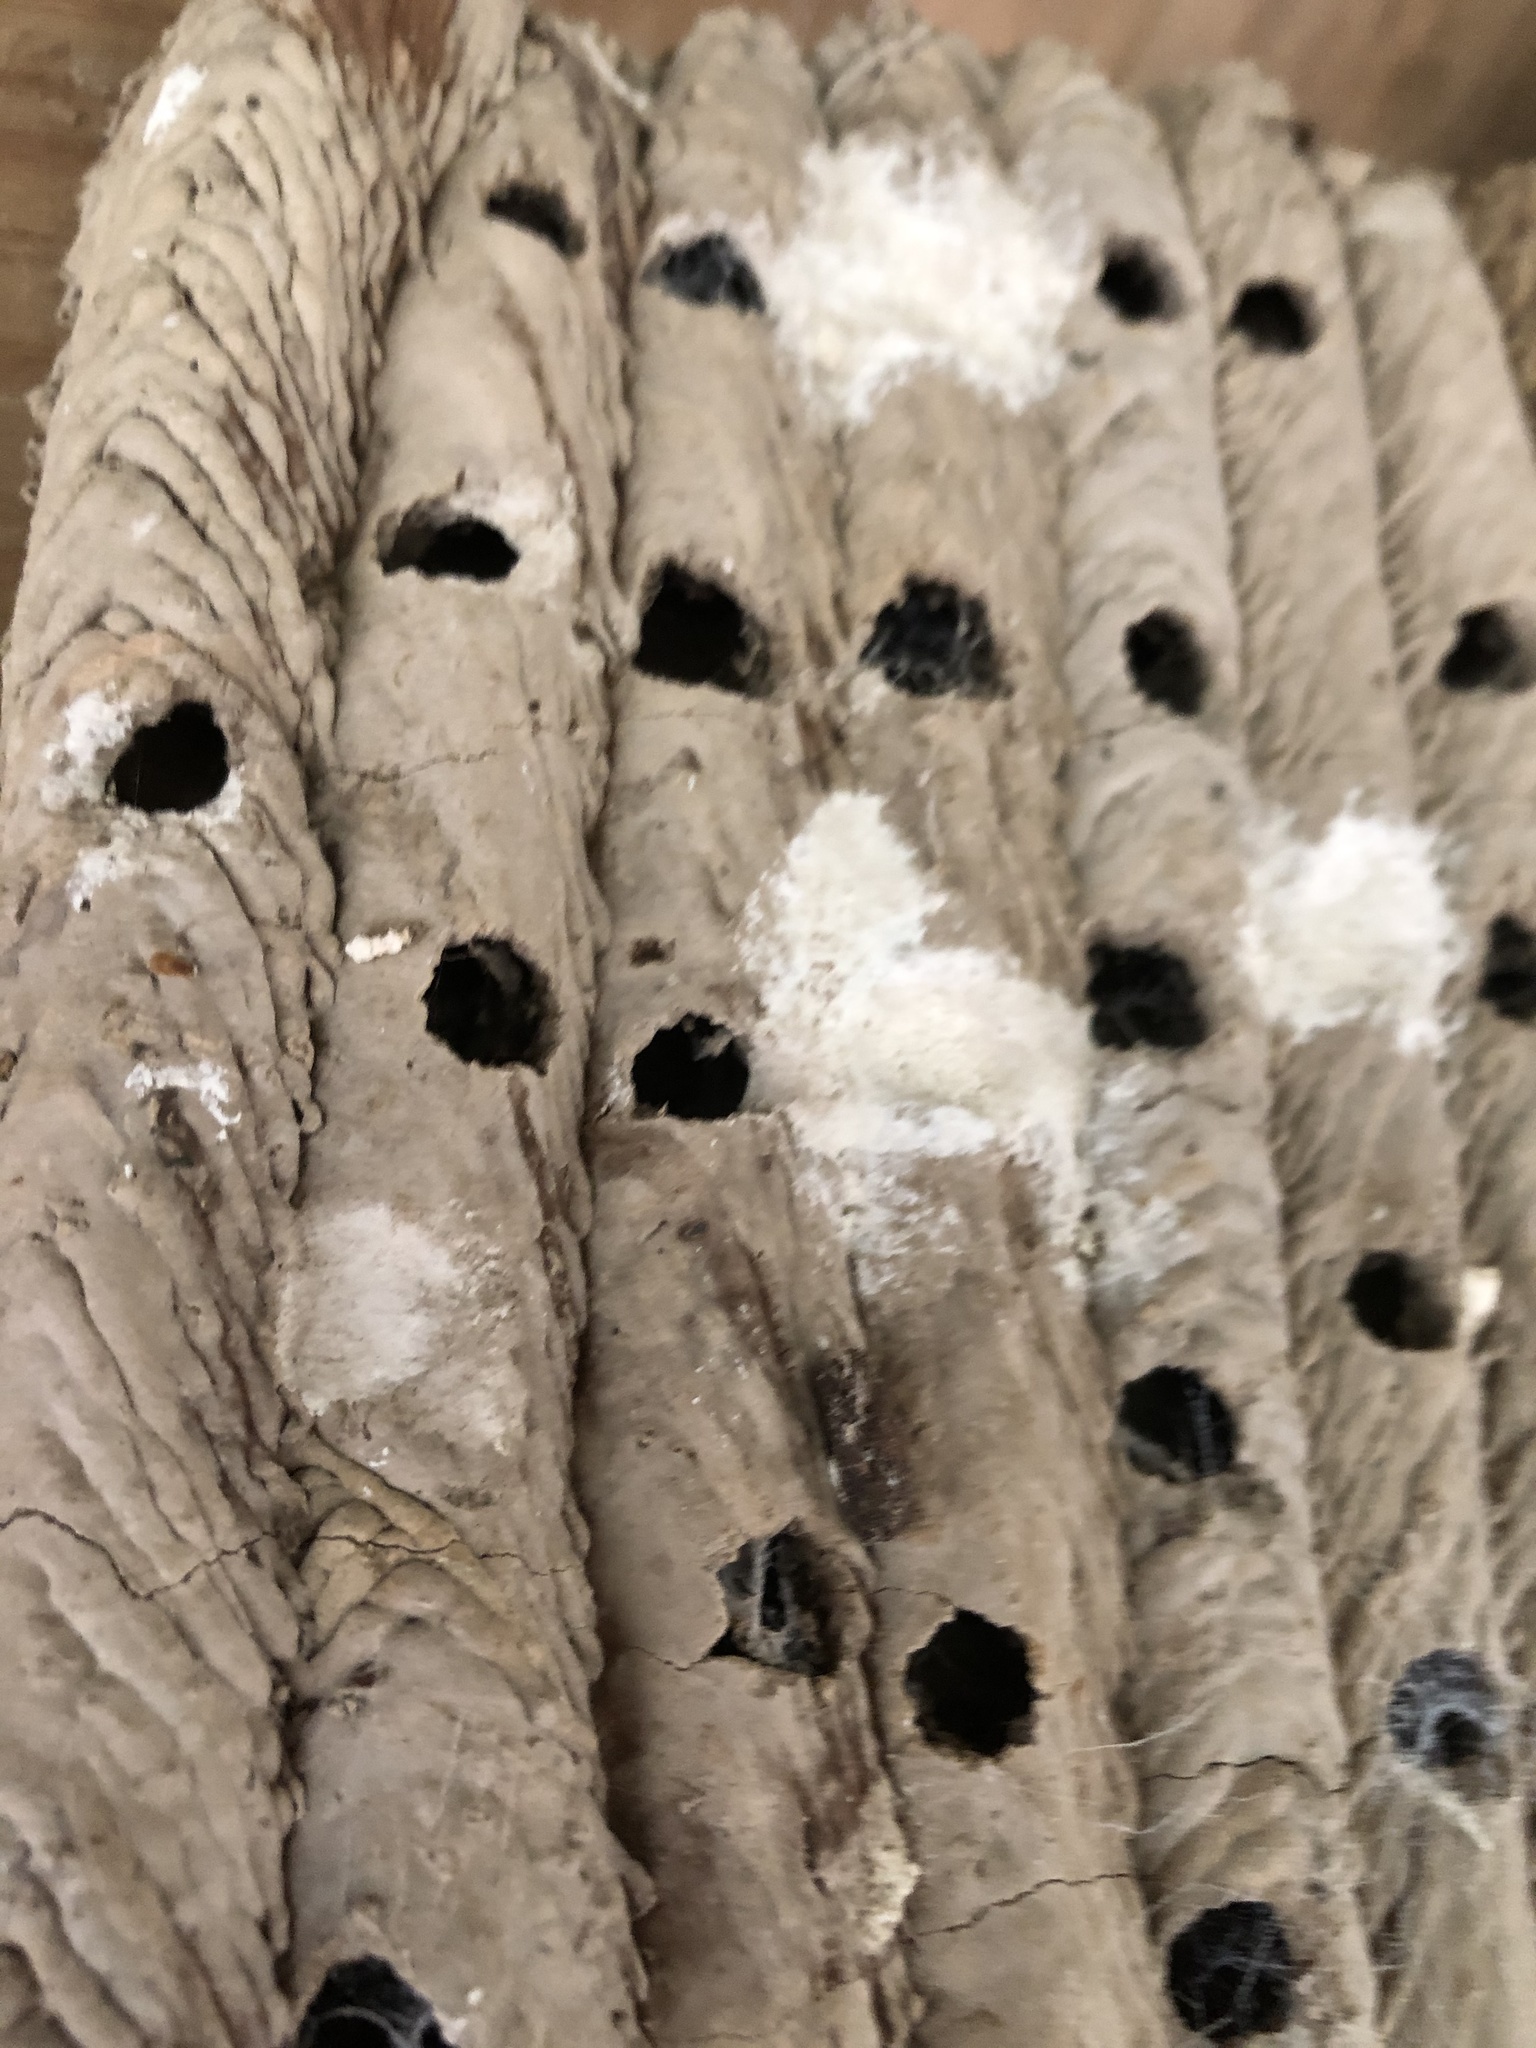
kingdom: Animalia
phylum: Arthropoda
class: Insecta
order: Hymenoptera
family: Crabronidae
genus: Trypoxylon
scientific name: Trypoxylon politum
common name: Organ-pipe mud-dauber wasp
